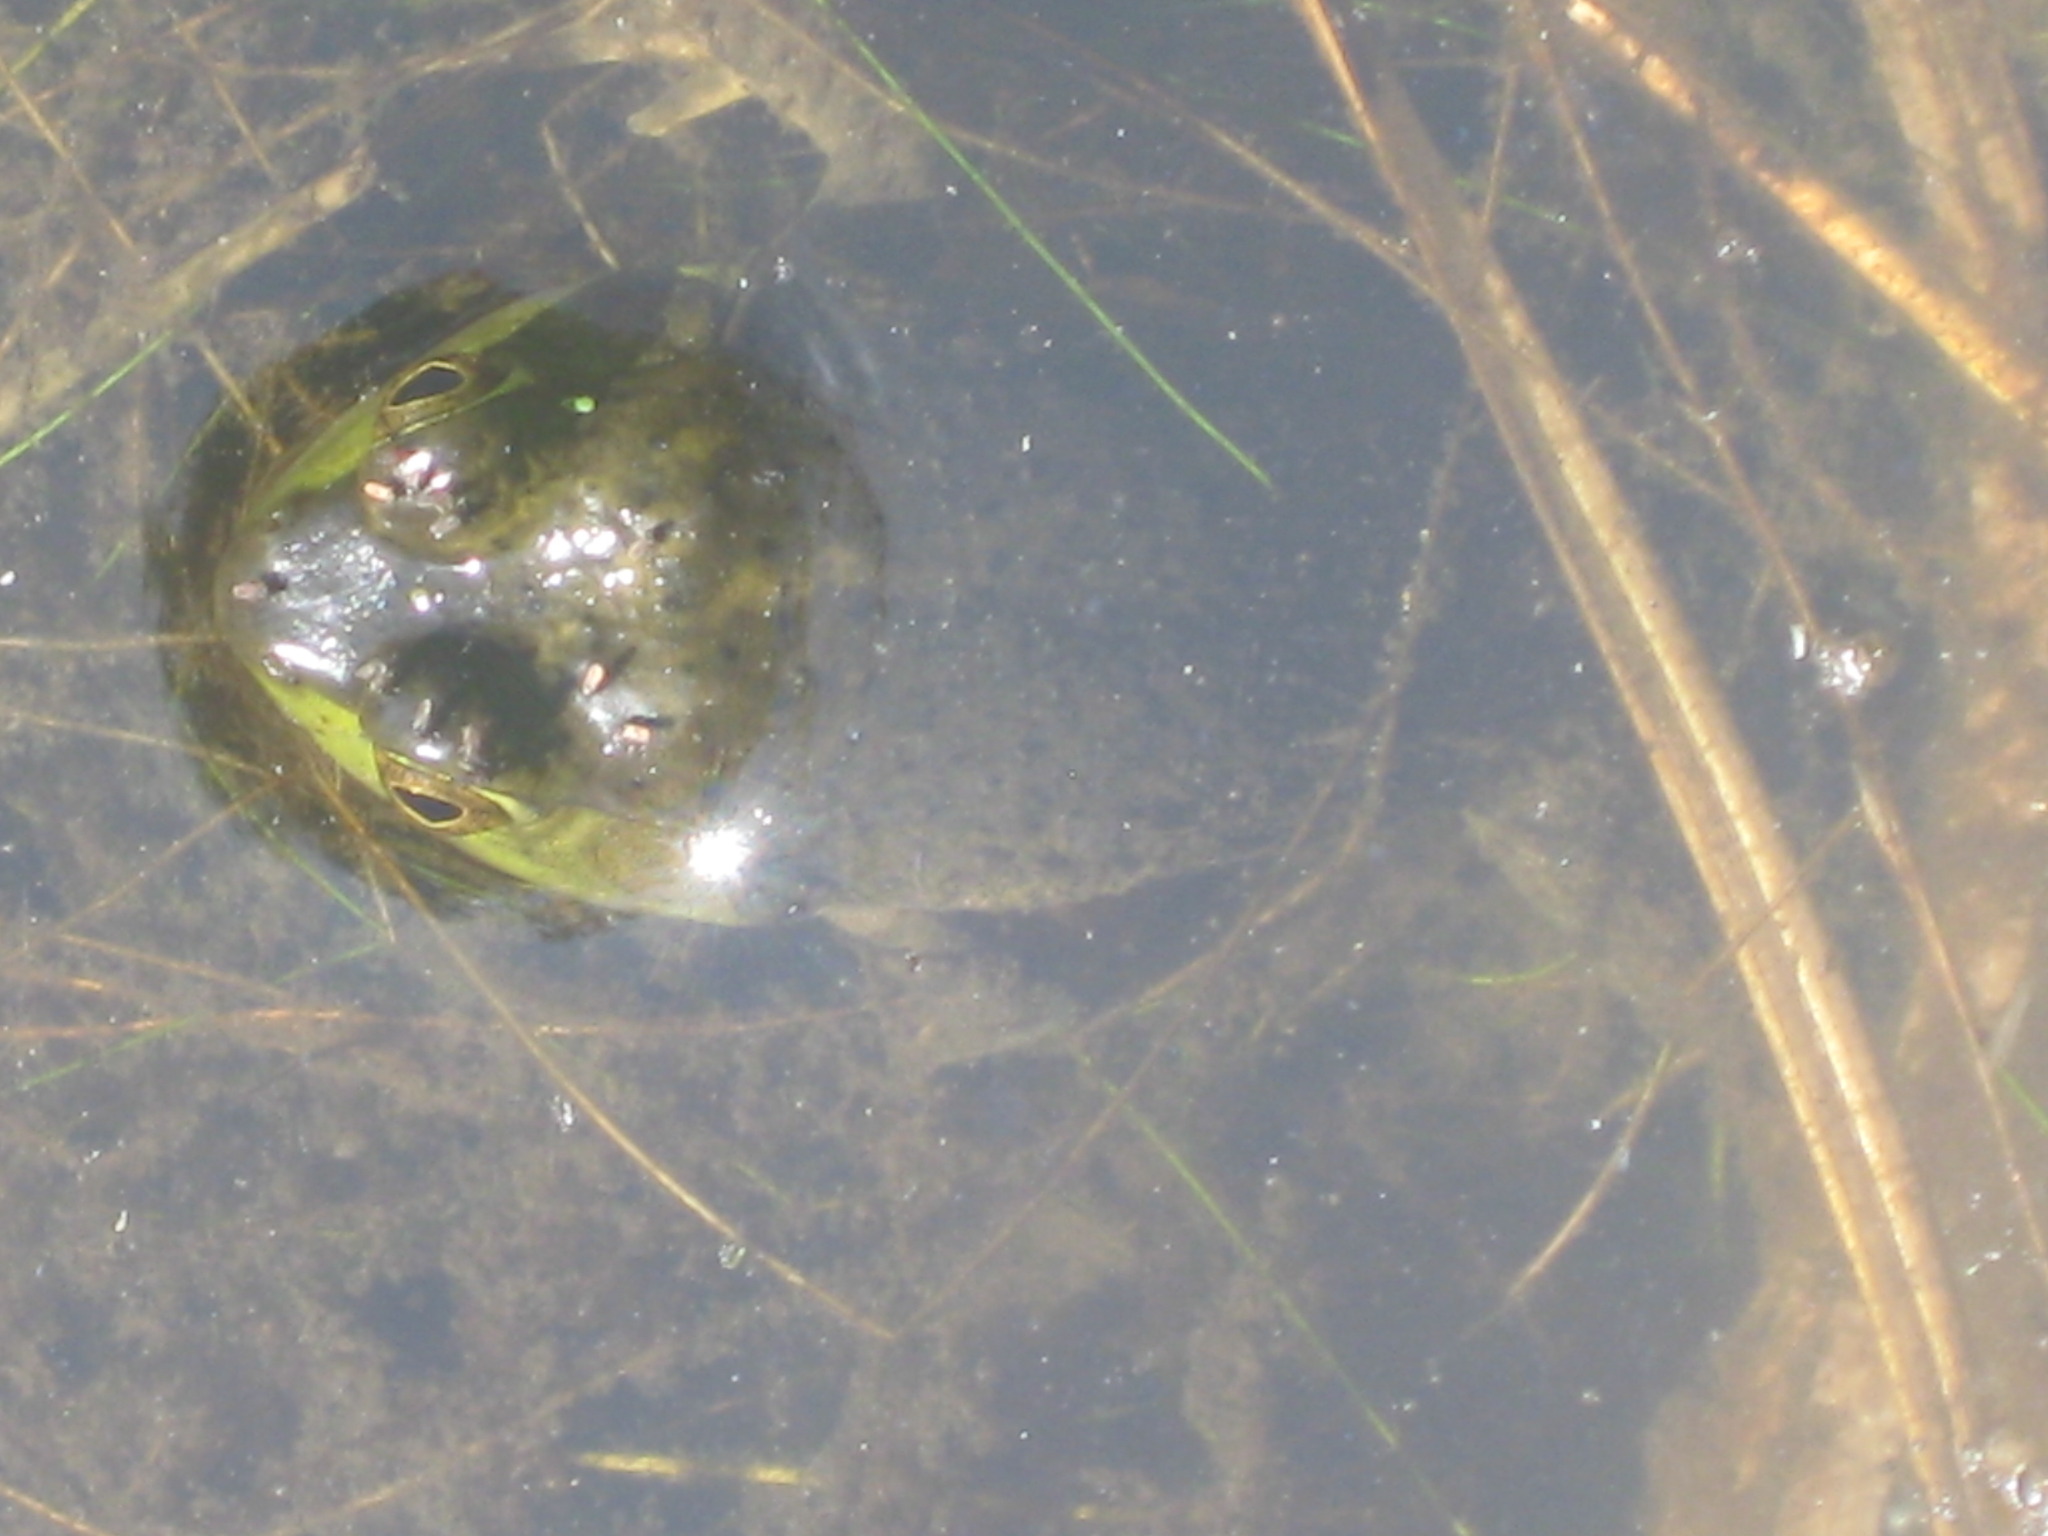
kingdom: Animalia
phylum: Chordata
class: Amphibia
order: Anura
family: Ranidae
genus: Lithobates
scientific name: Lithobates catesbeianus
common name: American bullfrog
